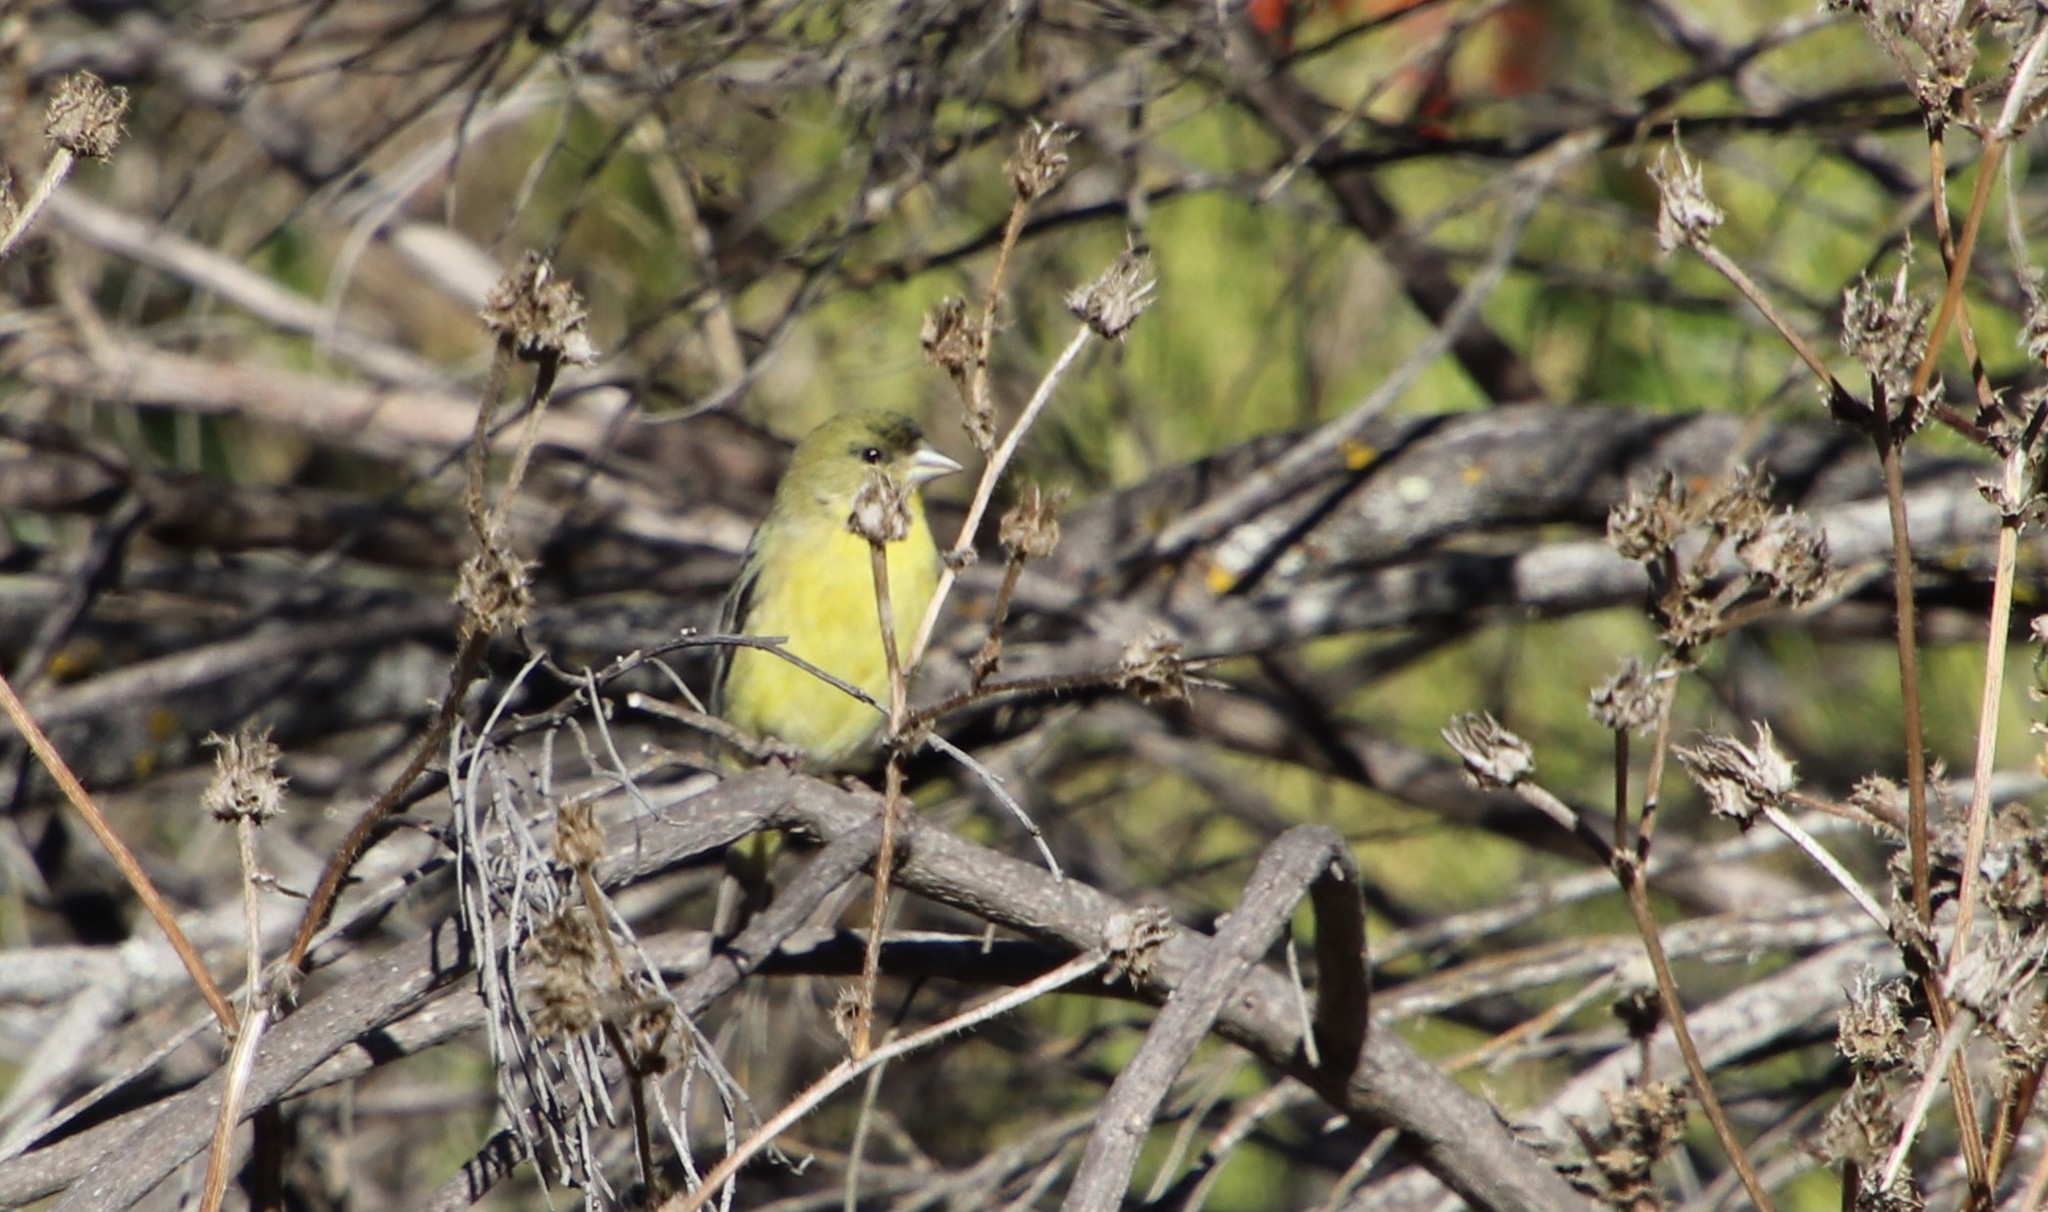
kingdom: Animalia
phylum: Chordata
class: Aves
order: Passeriformes
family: Fringillidae
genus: Spinus
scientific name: Spinus psaltria
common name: Lesser goldfinch
